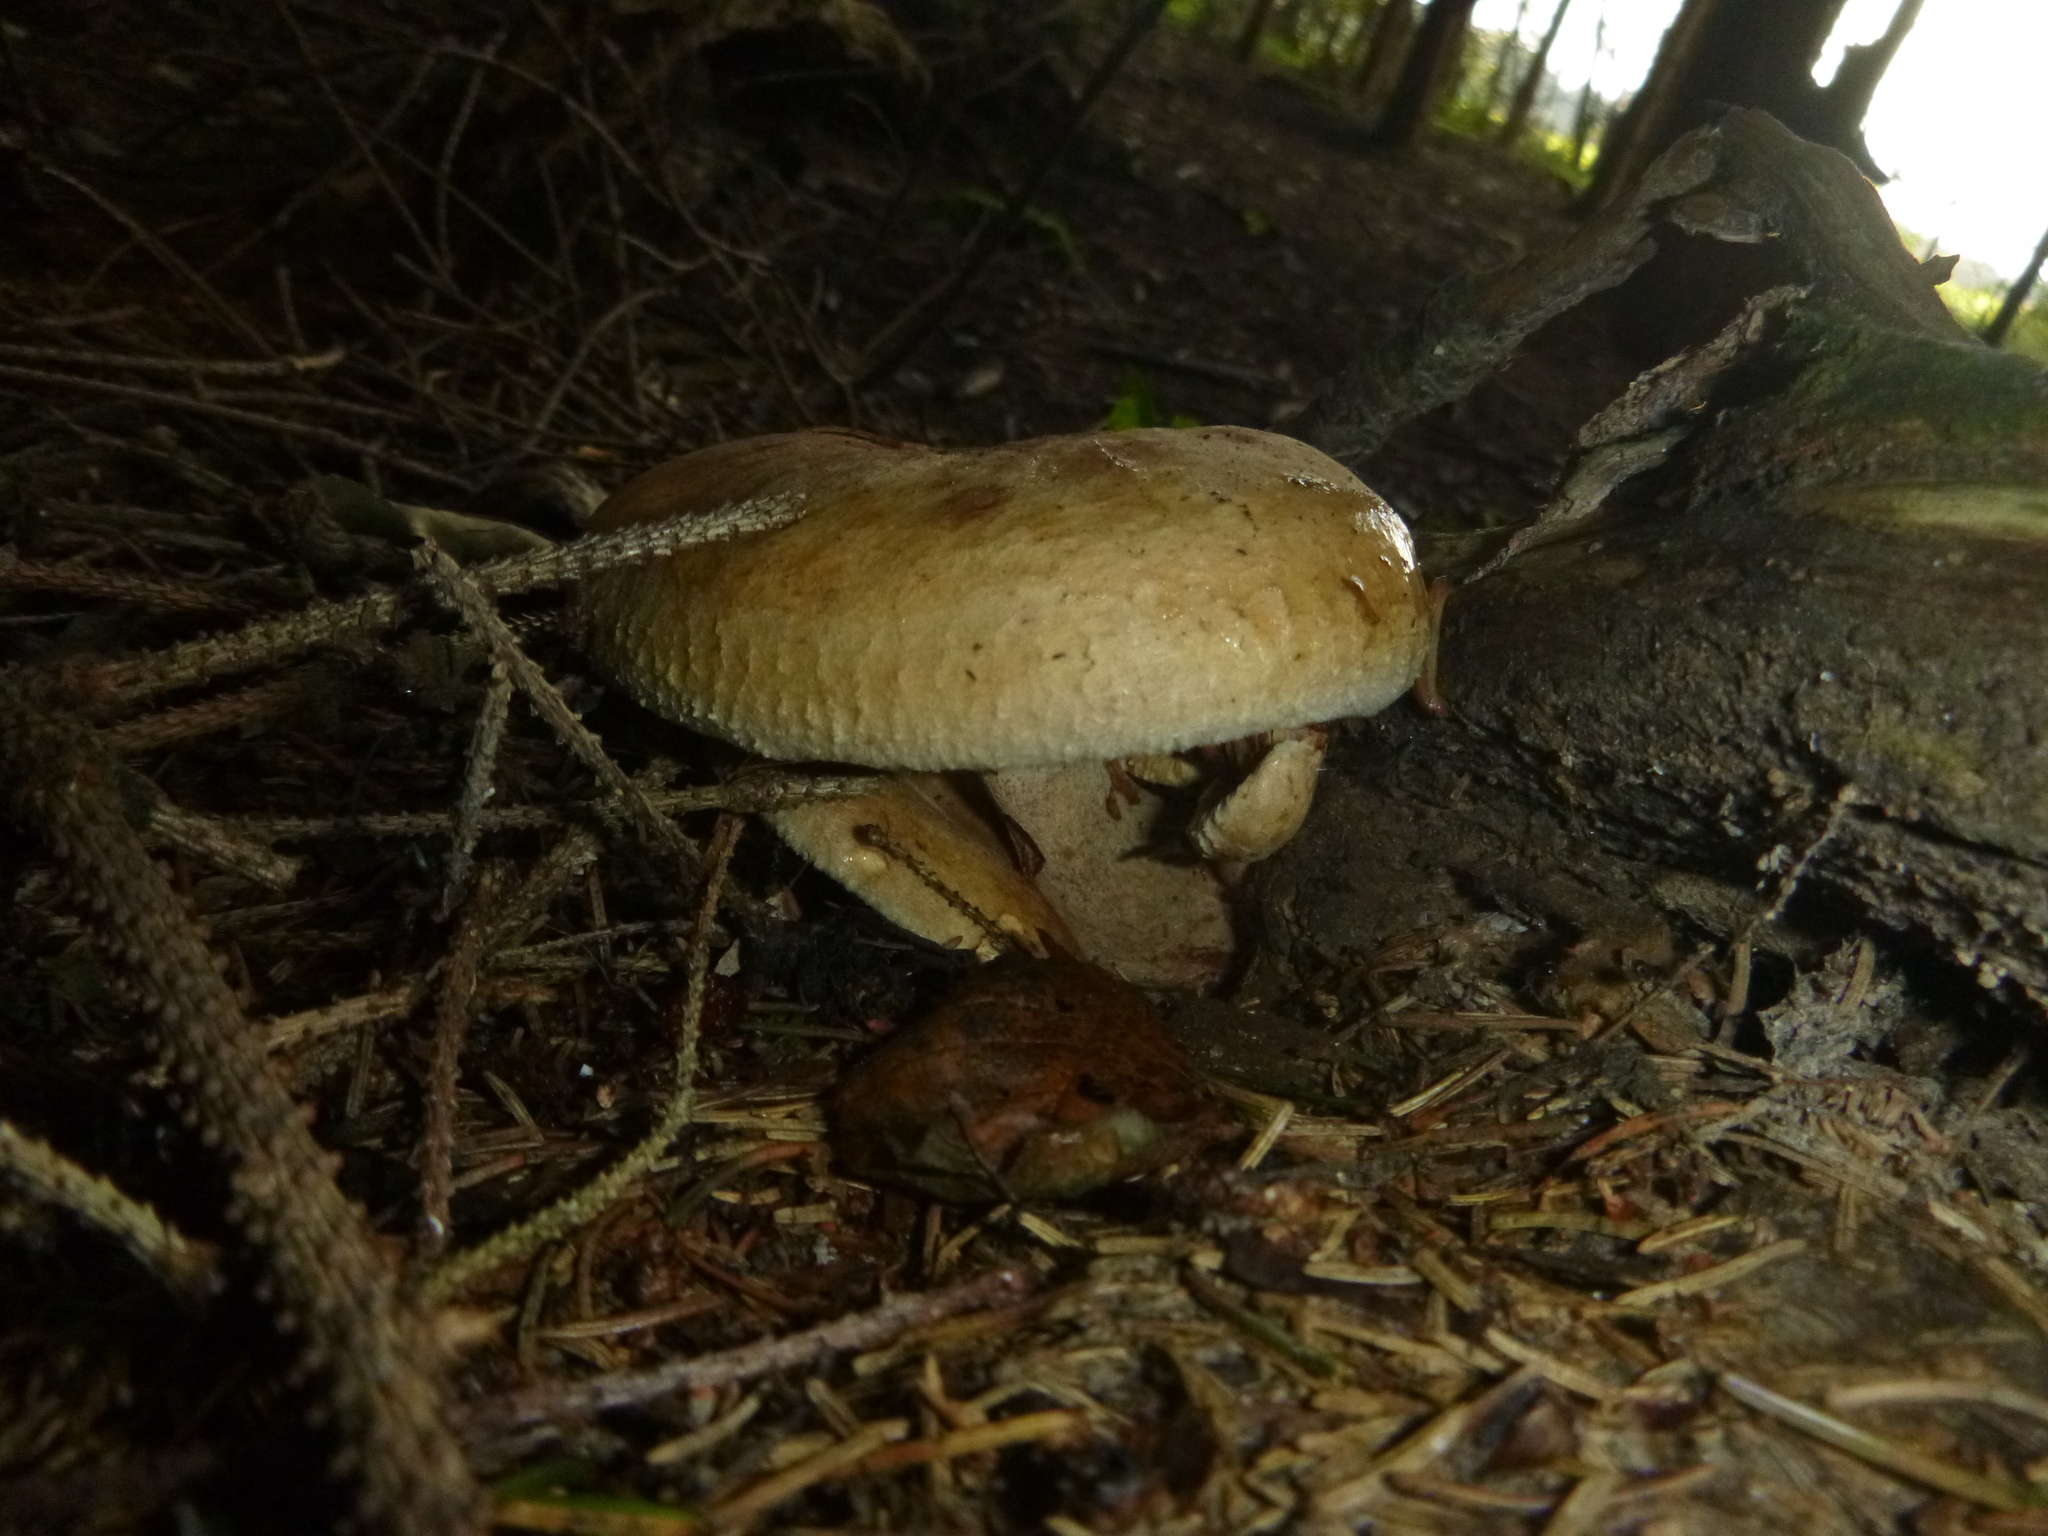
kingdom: Fungi
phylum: Basidiomycota
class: Agaricomycetes
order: Boletales
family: Paxillaceae
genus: Paxillus
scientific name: Paxillus involutus
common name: Brown roll rim
